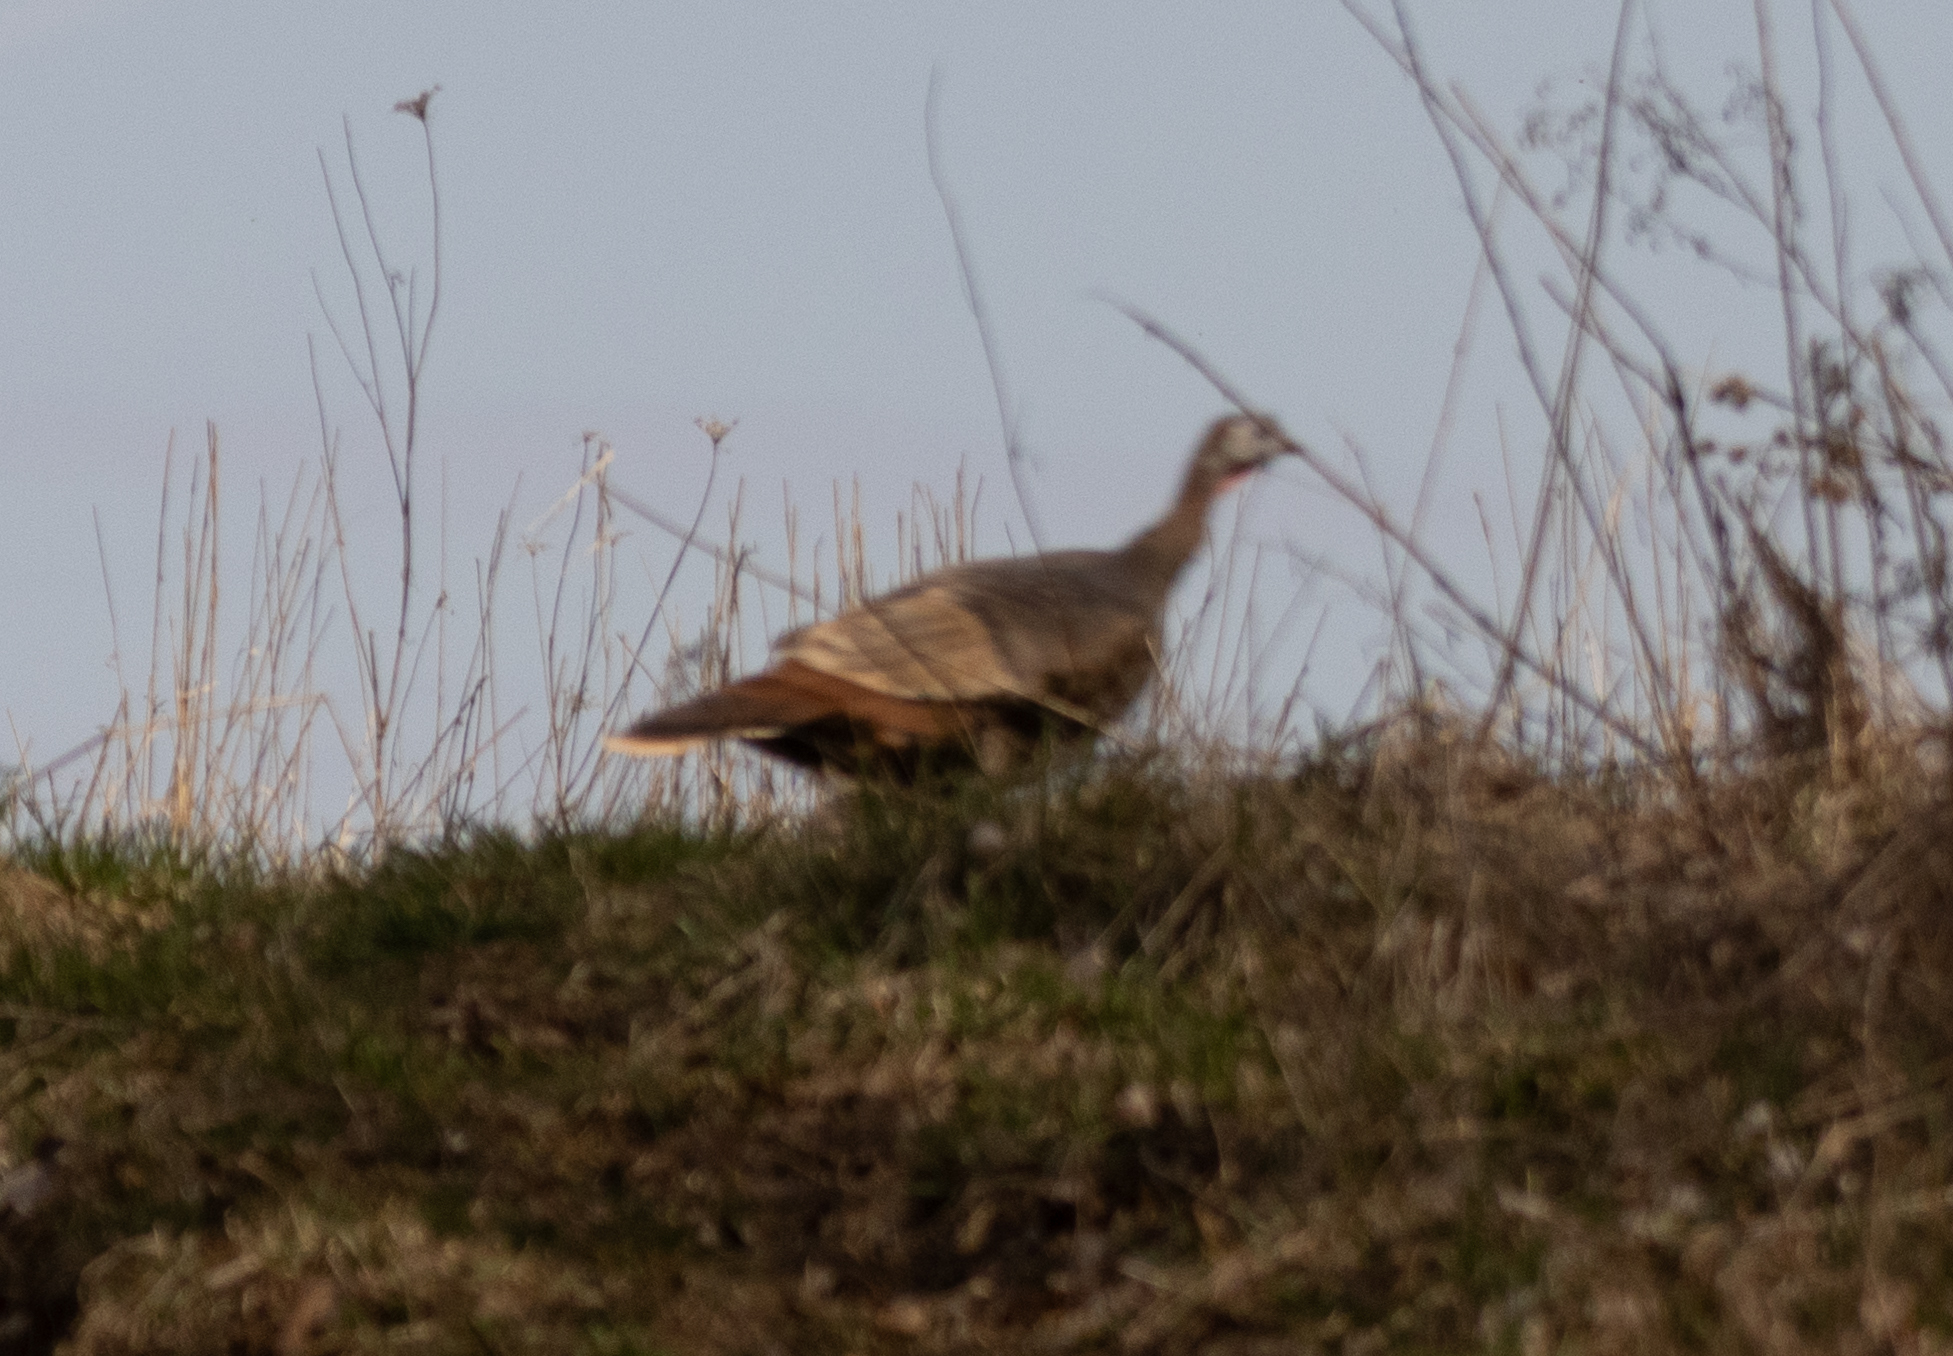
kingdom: Animalia
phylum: Chordata
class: Aves
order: Galliformes
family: Phasianidae
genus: Meleagris
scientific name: Meleagris gallopavo
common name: Wild turkey
